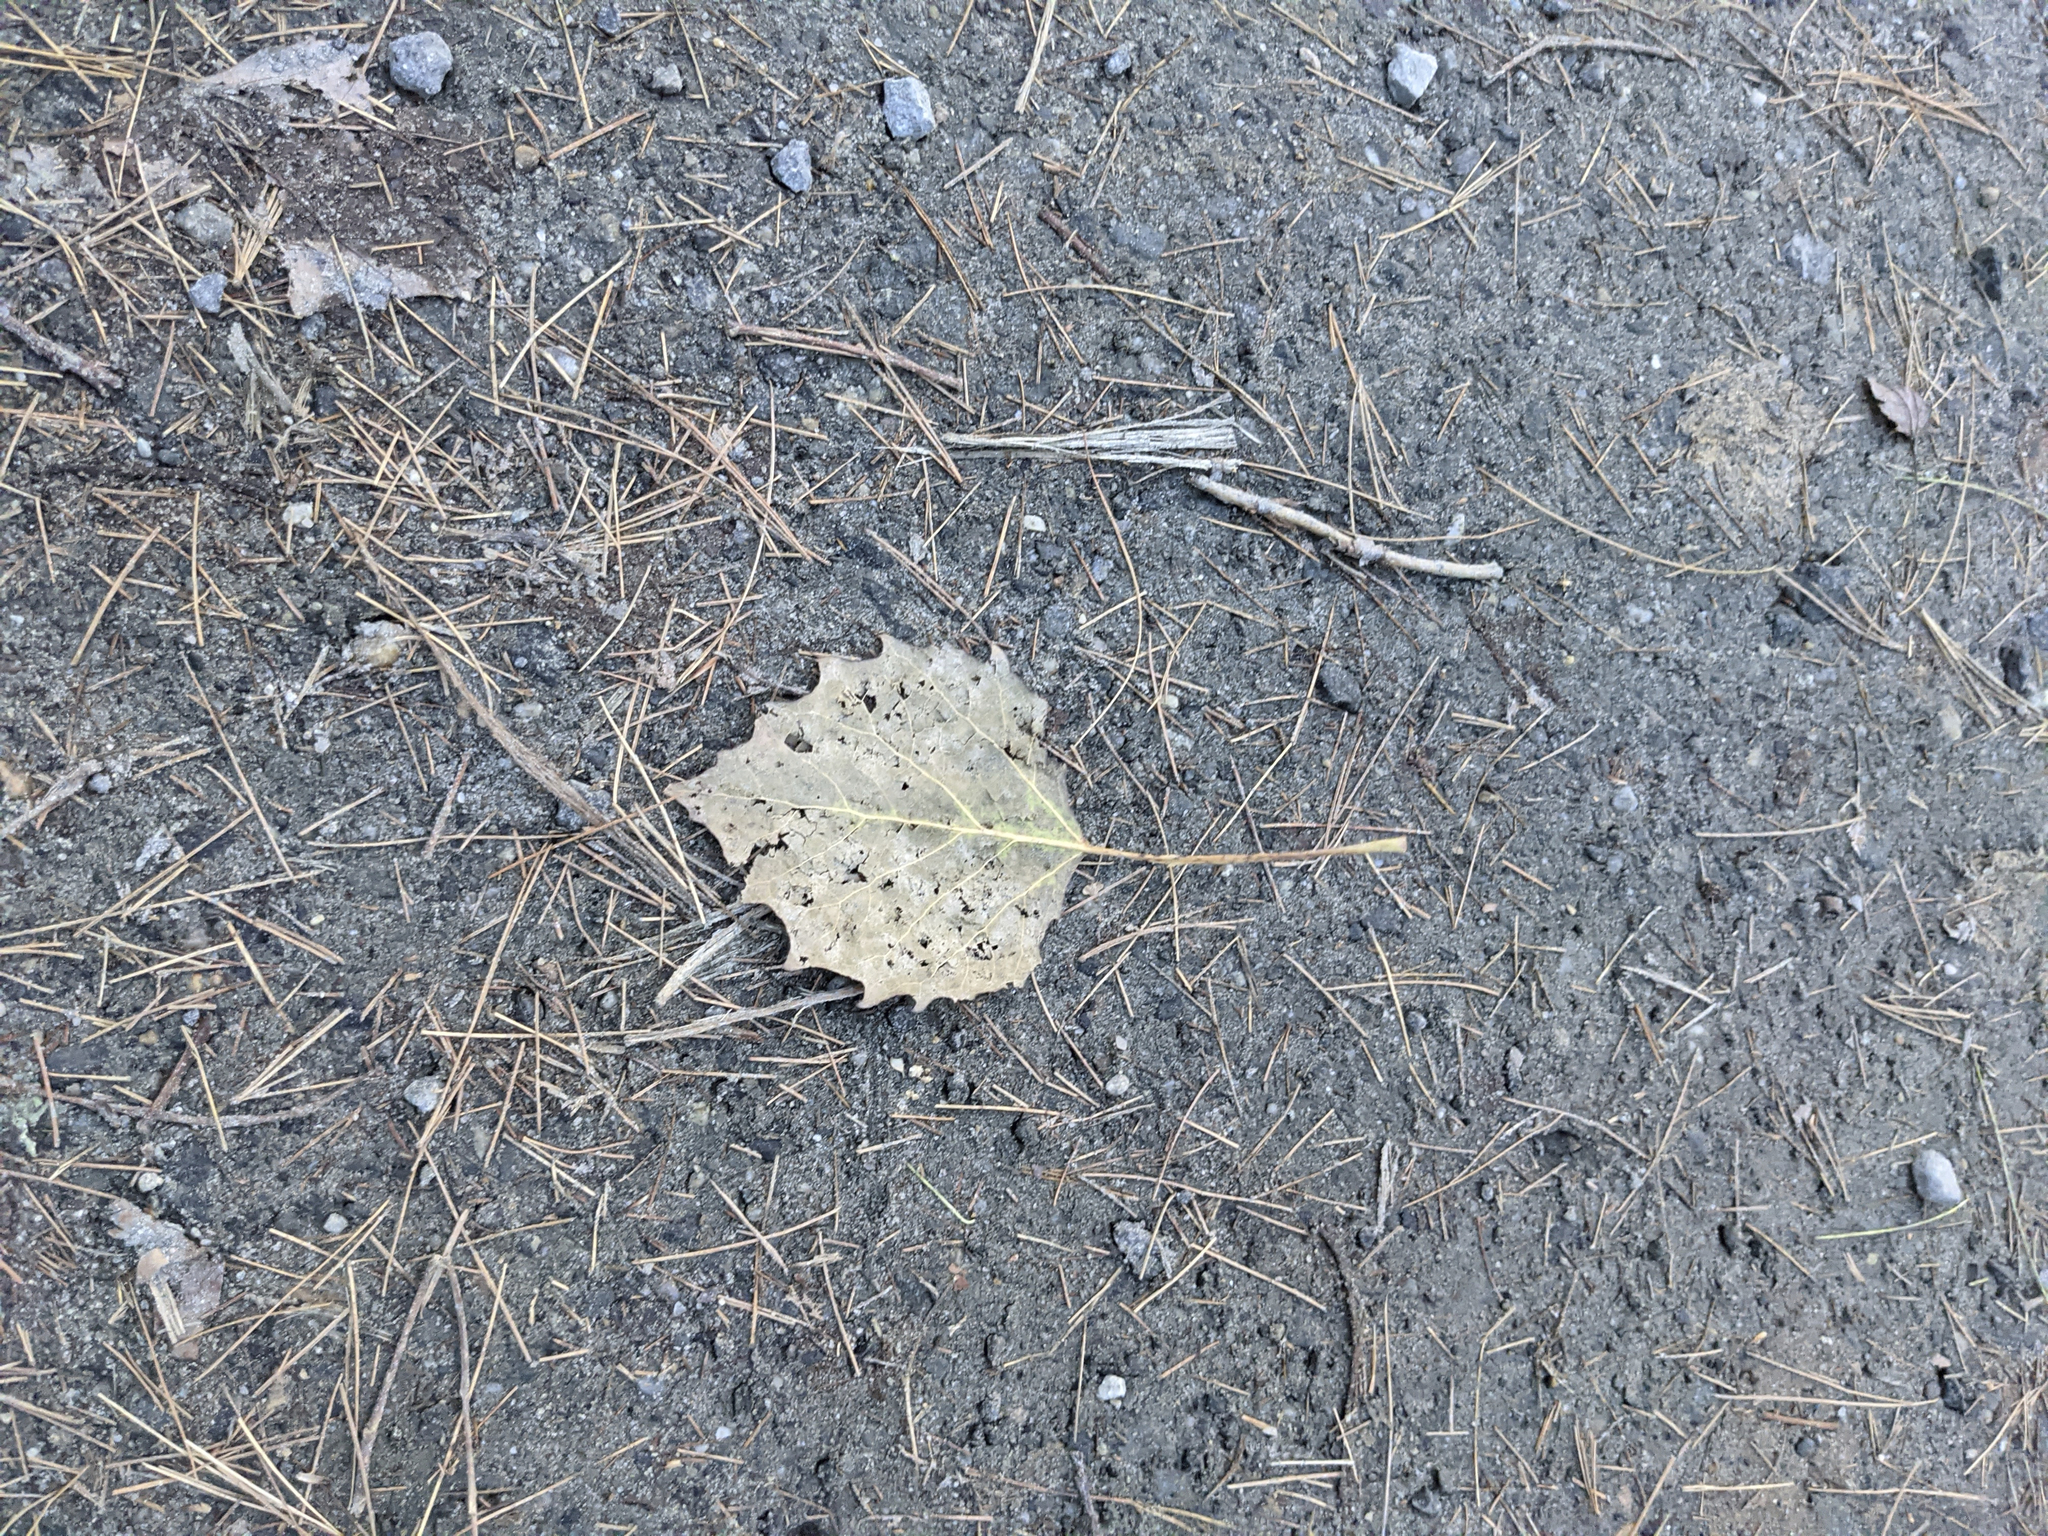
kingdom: Plantae
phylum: Tracheophyta
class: Magnoliopsida
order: Malpighiales
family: Salicaceae
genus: Populus
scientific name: Populus grandidentata
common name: Bigtooth aspen
